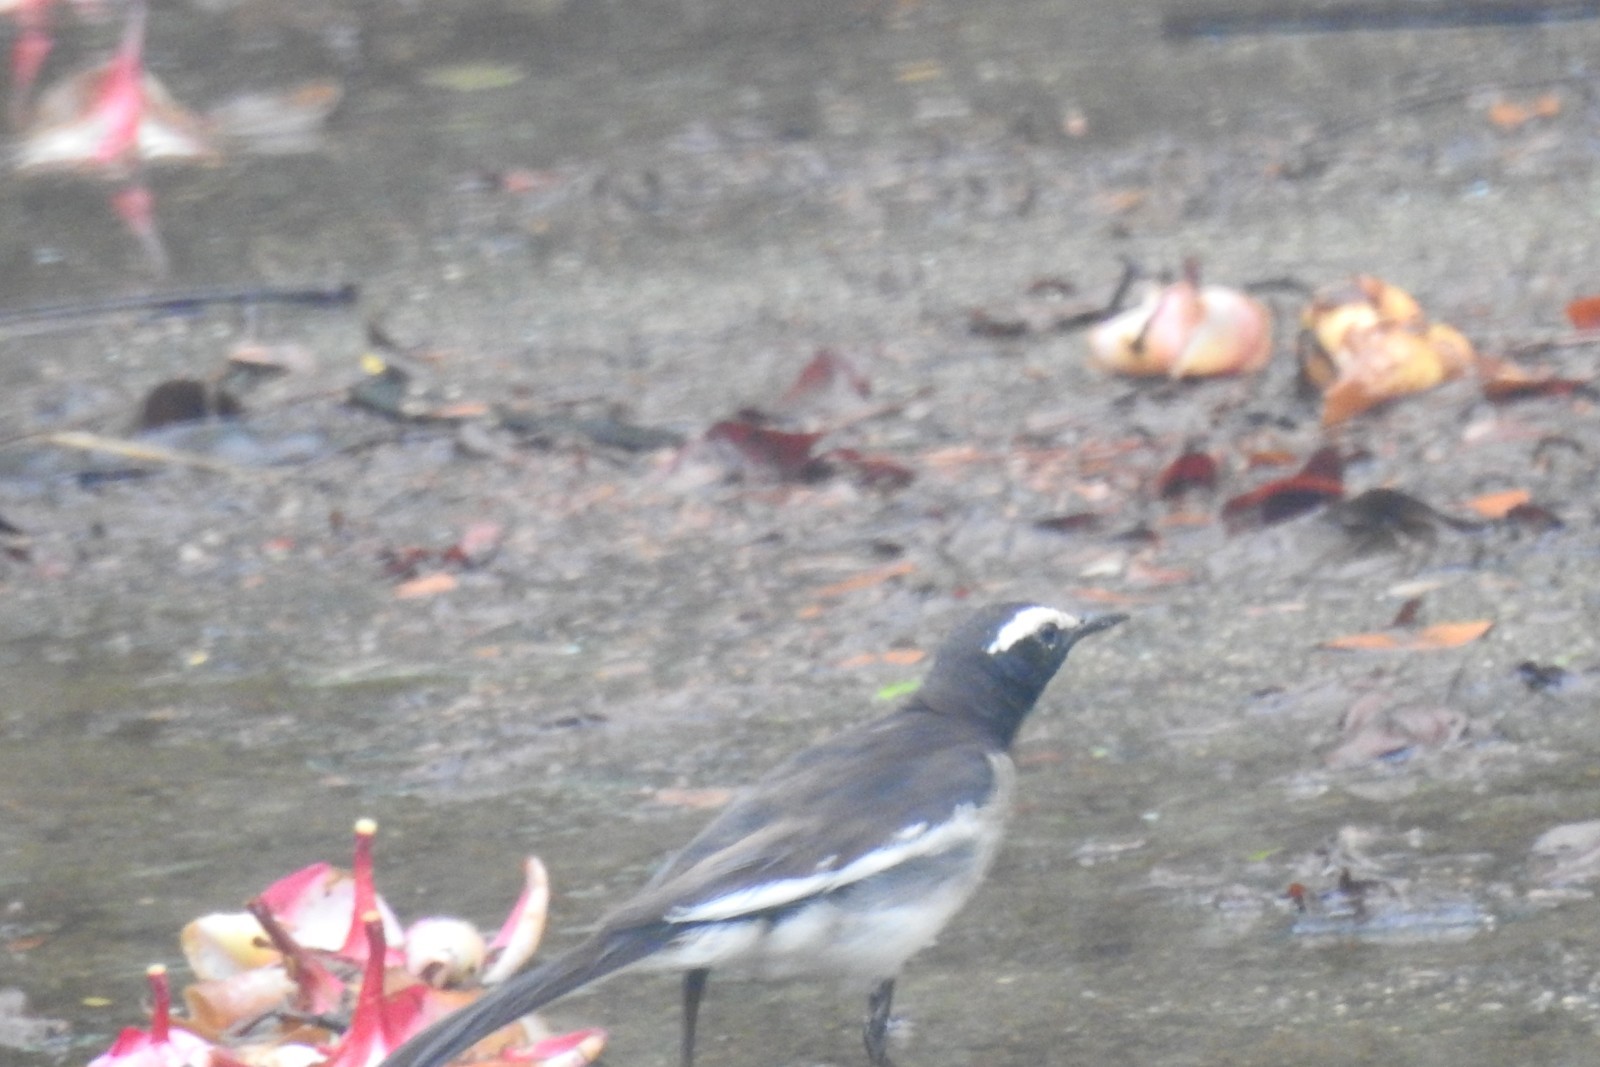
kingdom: Animalia
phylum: Chordata
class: Aves
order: Passeriformes
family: Motacillidae
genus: Motacilla
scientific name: Motacilla maderaspatensis
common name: White-browed wagtail
